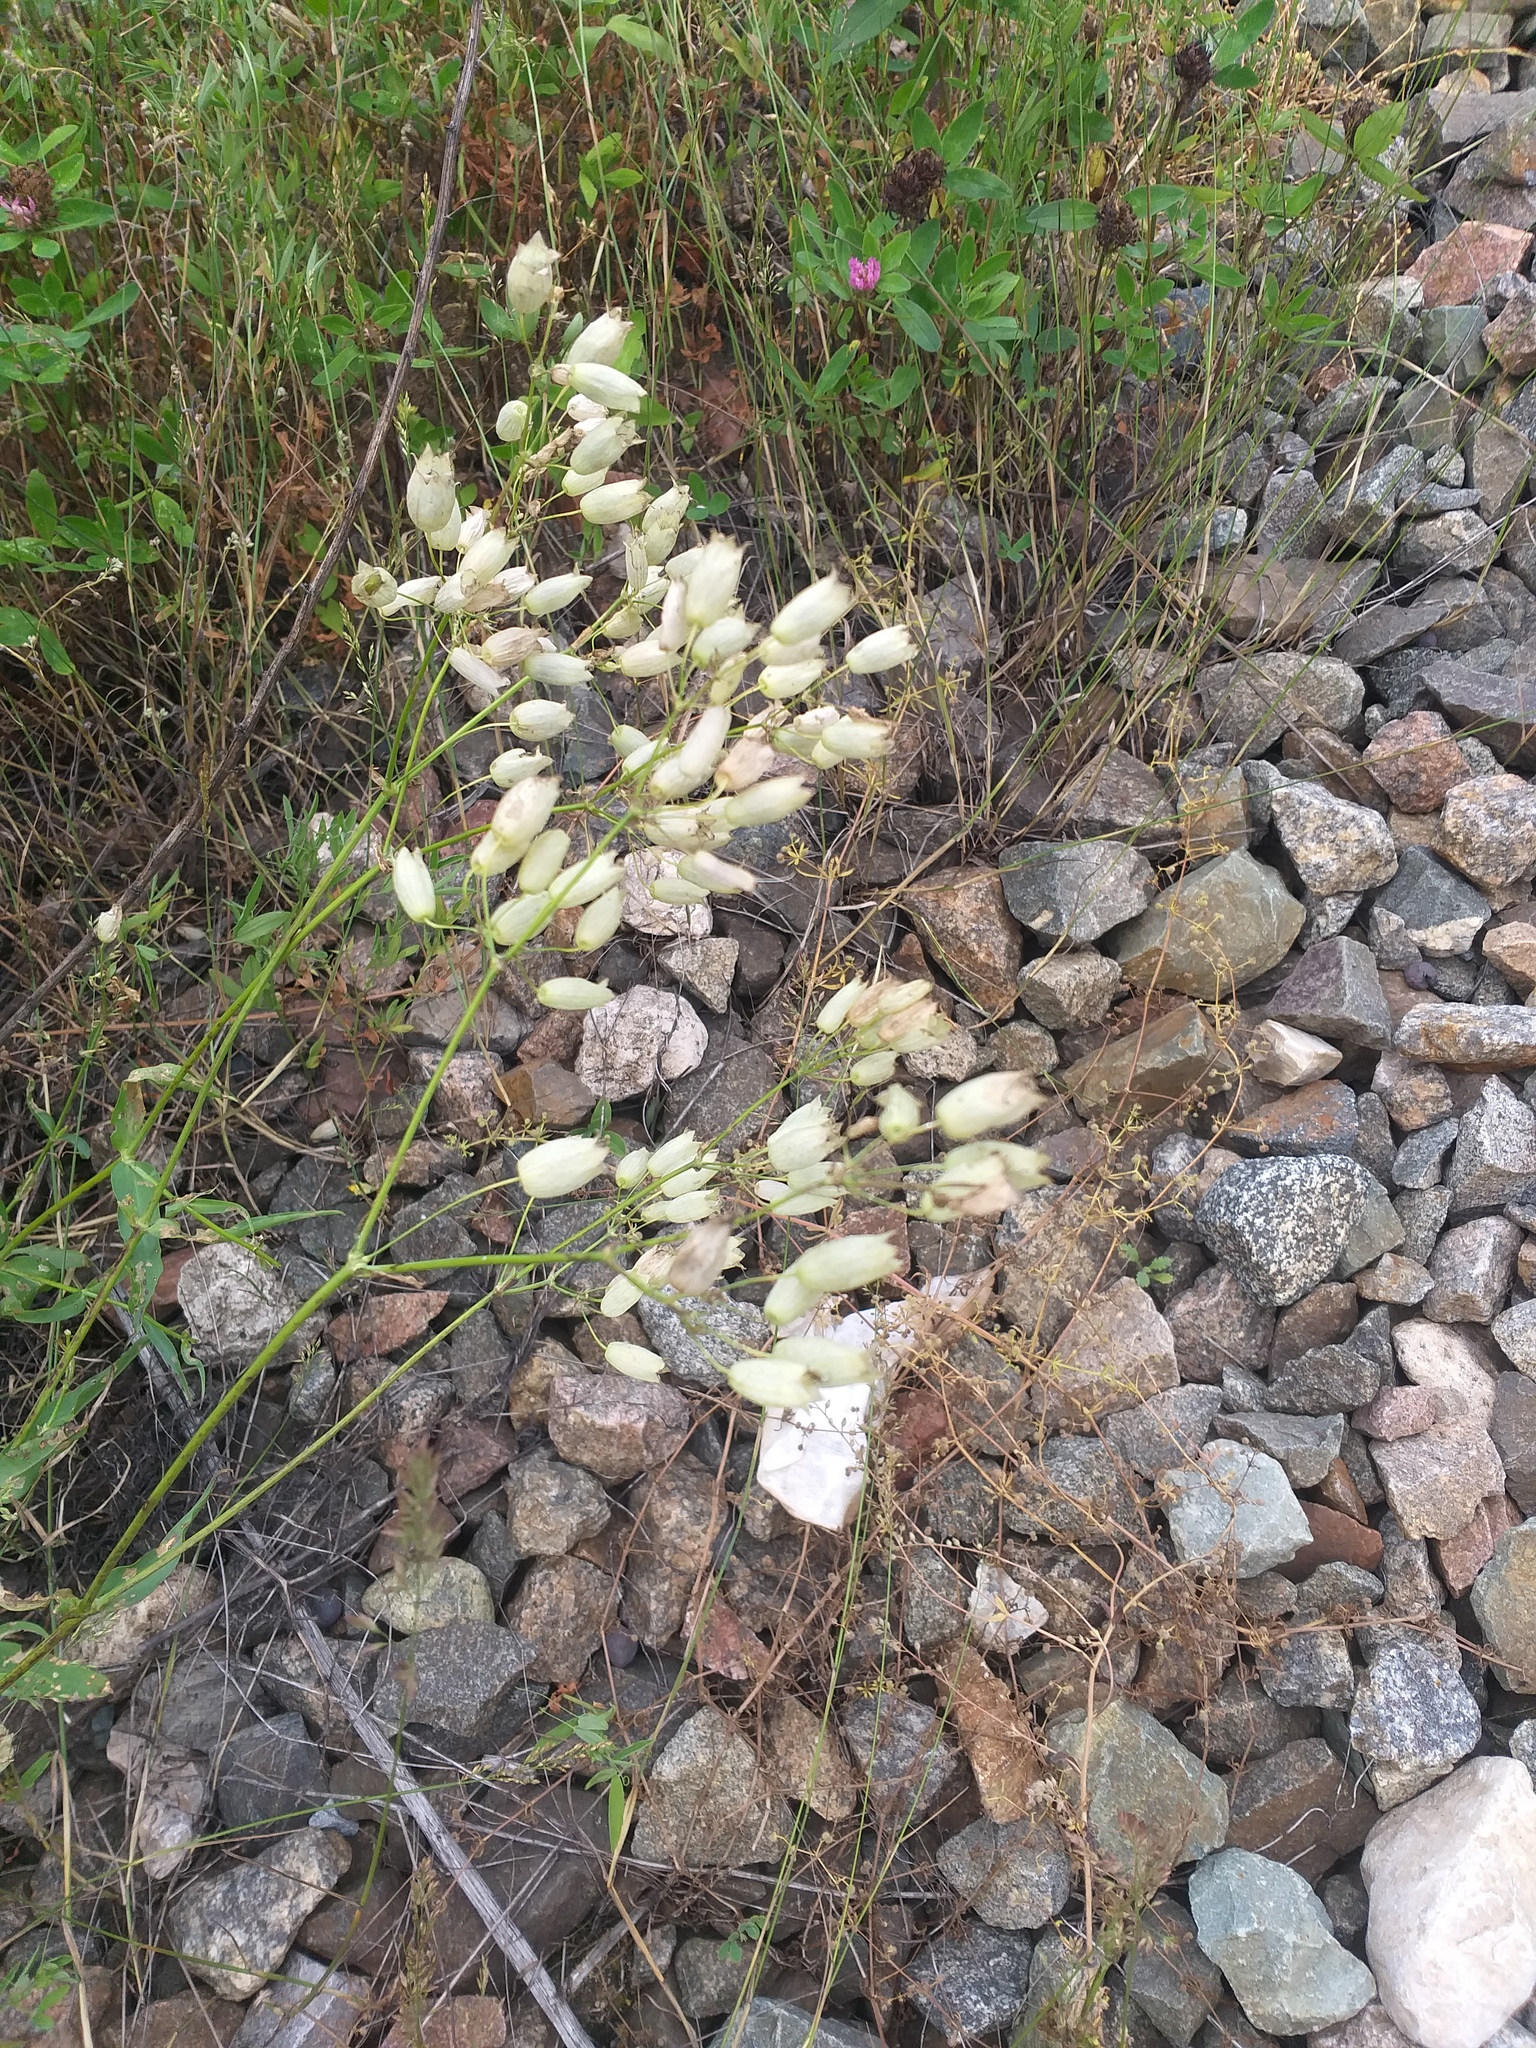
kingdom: Plantae
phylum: Tracheophyta
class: Magnoliopsida
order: Caryophyllales
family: Caryophyllaceae
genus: Silene
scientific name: Silene vulgaris
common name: Bladder campion
